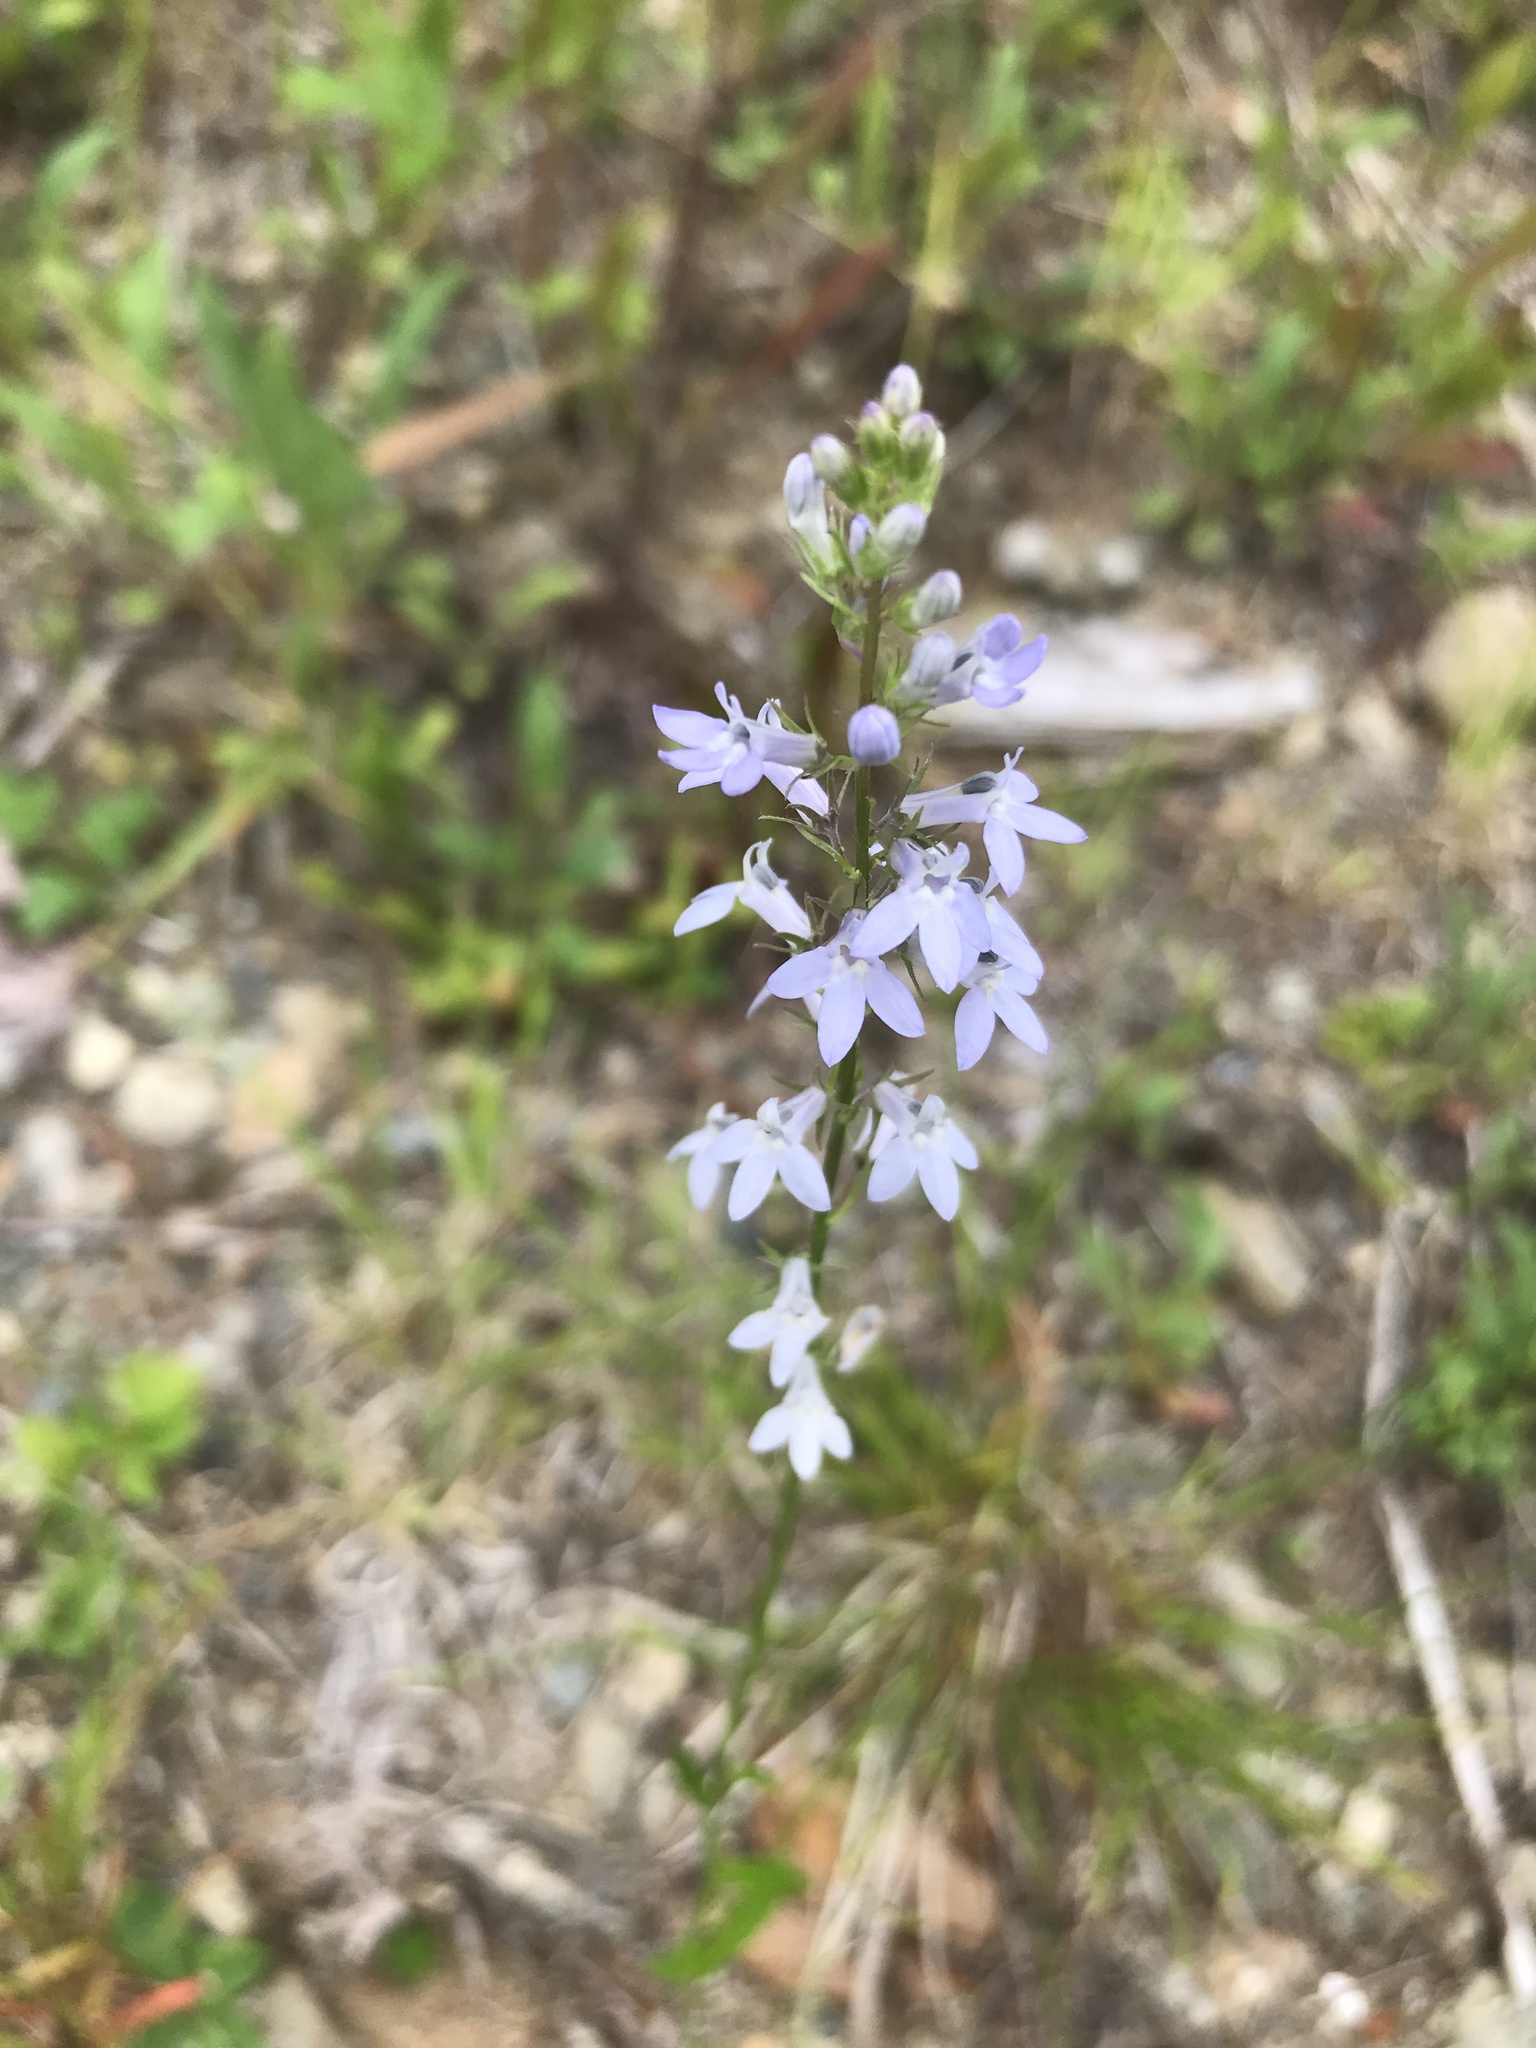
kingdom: Plantae
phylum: Tracheophyta
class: Magnoliopsida
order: Asterales
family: Campanulaceae
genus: Lobelia
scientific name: Lobelia spicata
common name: Pale-spike lobelia
